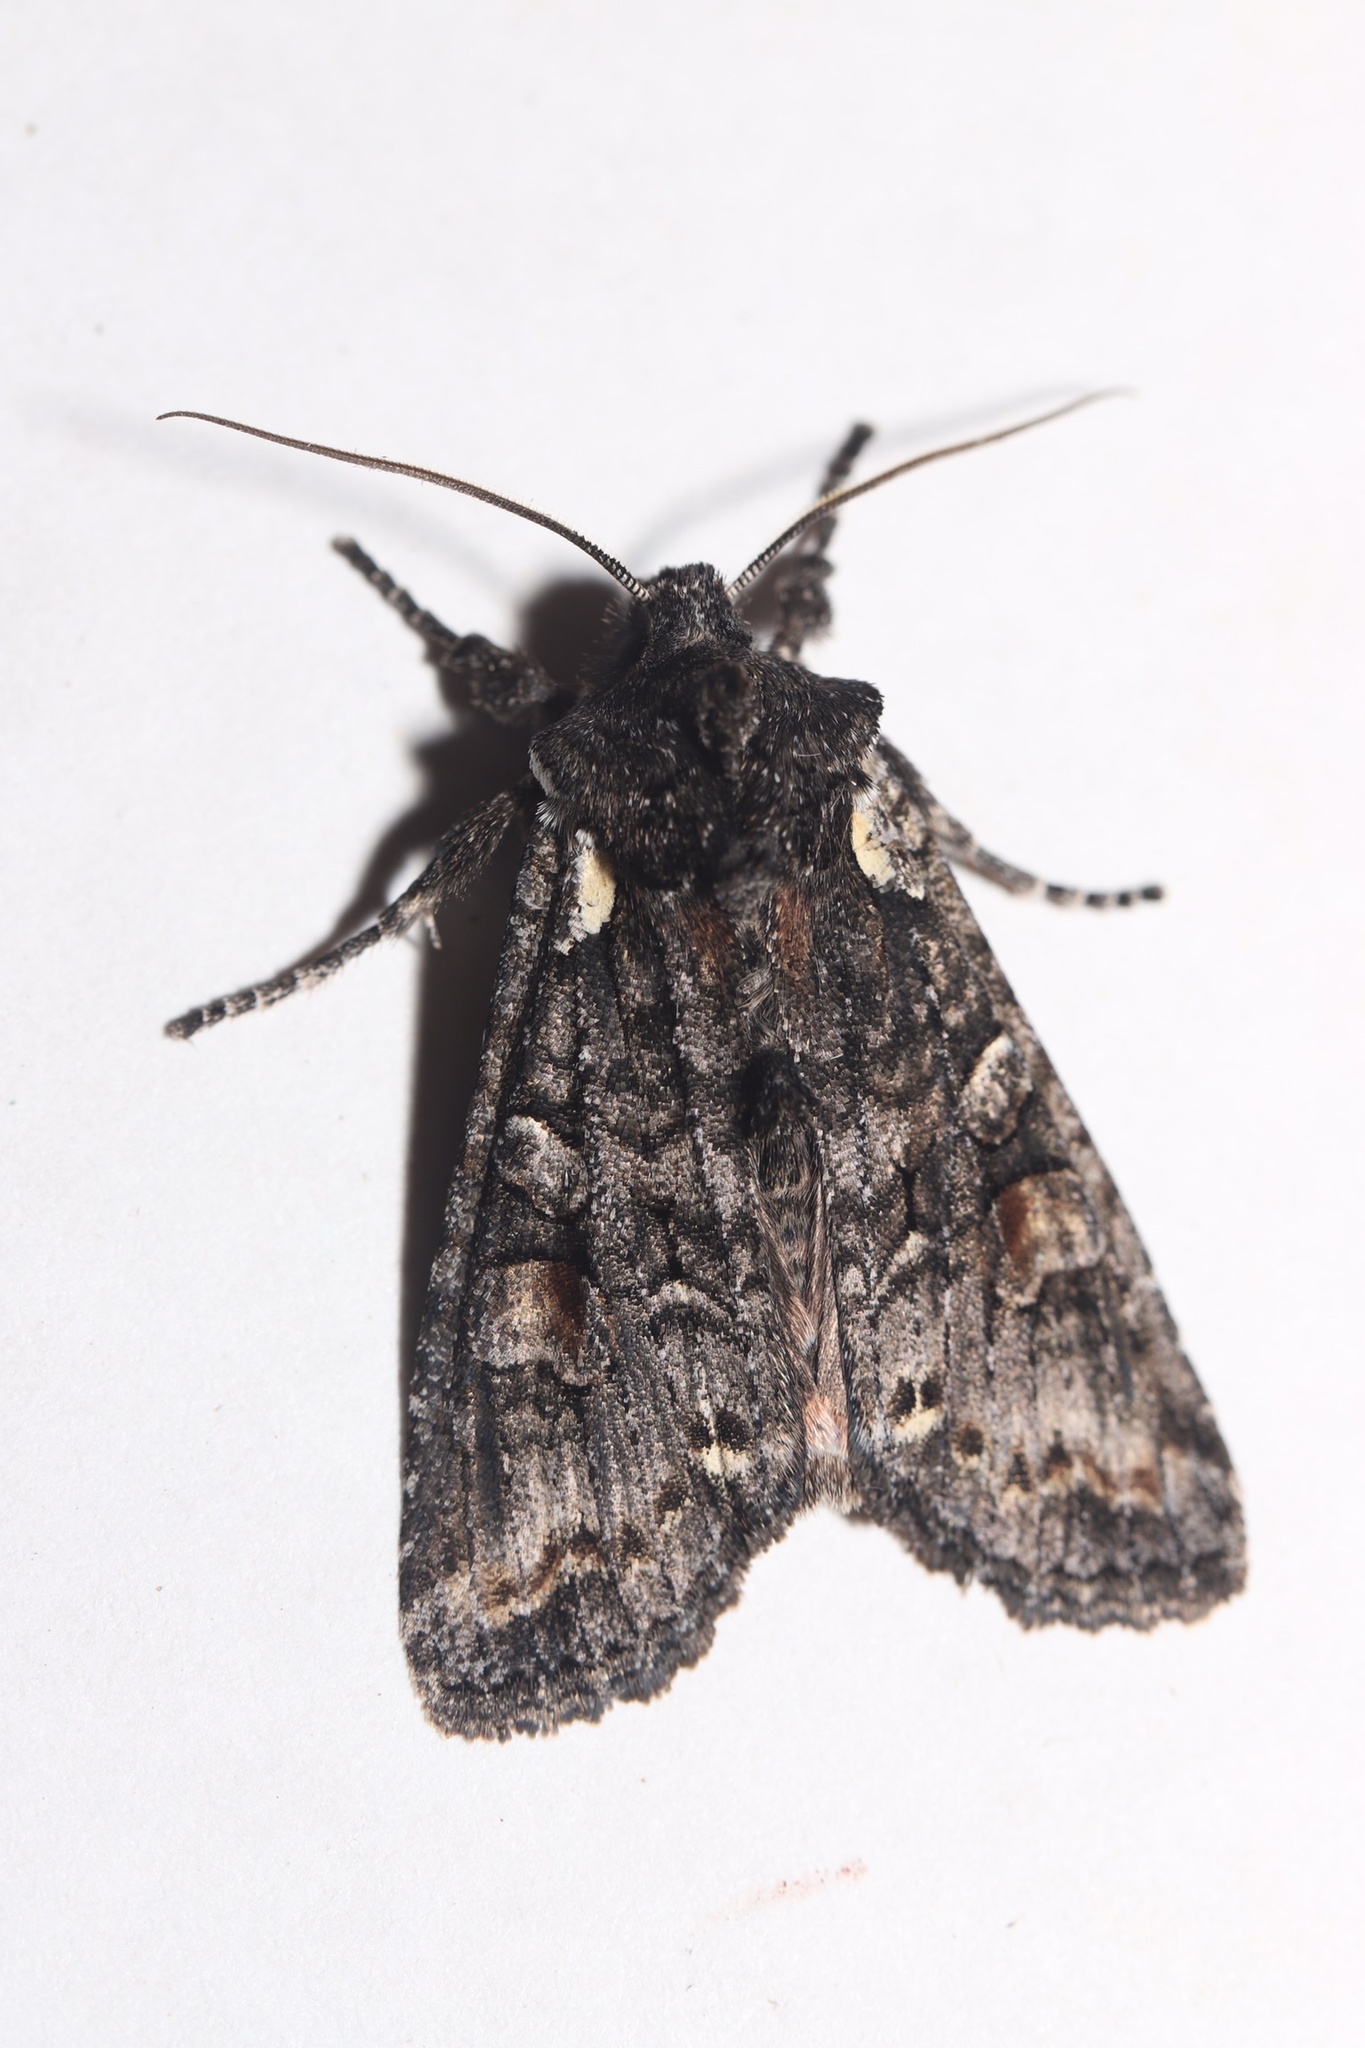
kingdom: Animalia
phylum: Arthropoda
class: Insecta
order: Lepidoptera
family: Noctuidae
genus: Lithophane
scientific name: Lithophane pexata
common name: Plush-naped pinion moth
